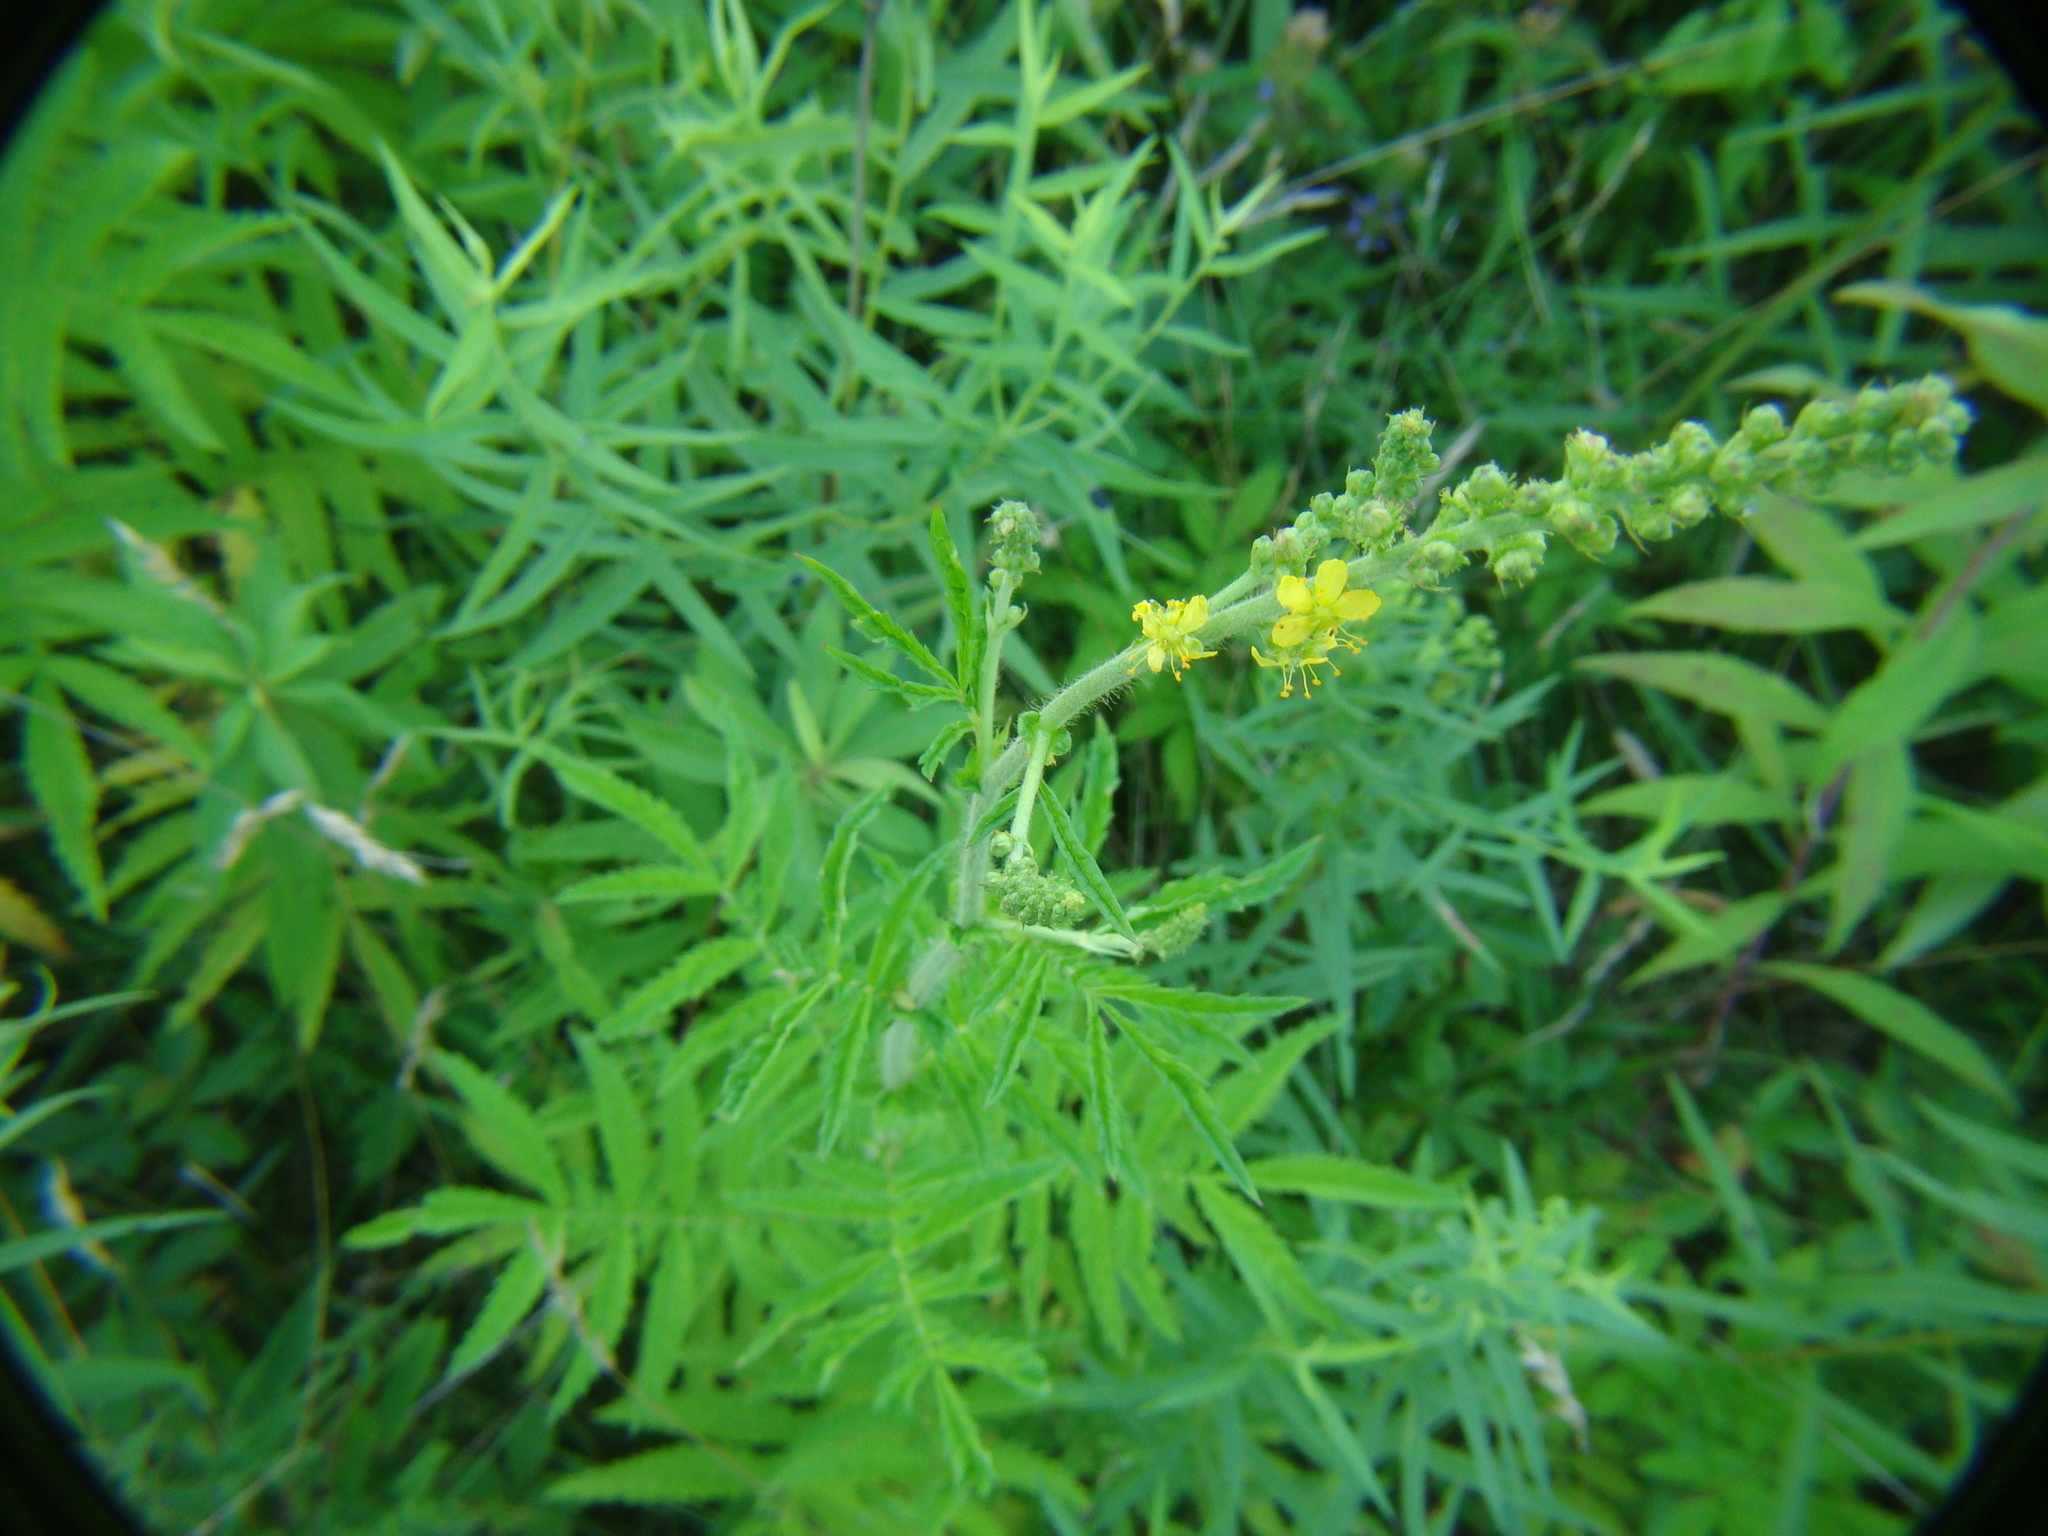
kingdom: Plantae
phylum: Tracheophyta
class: Magnoliopsida
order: Rosales
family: Rosaceae
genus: Agrimonia
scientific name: Agrimonia parviflora
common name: Harvest-lice
